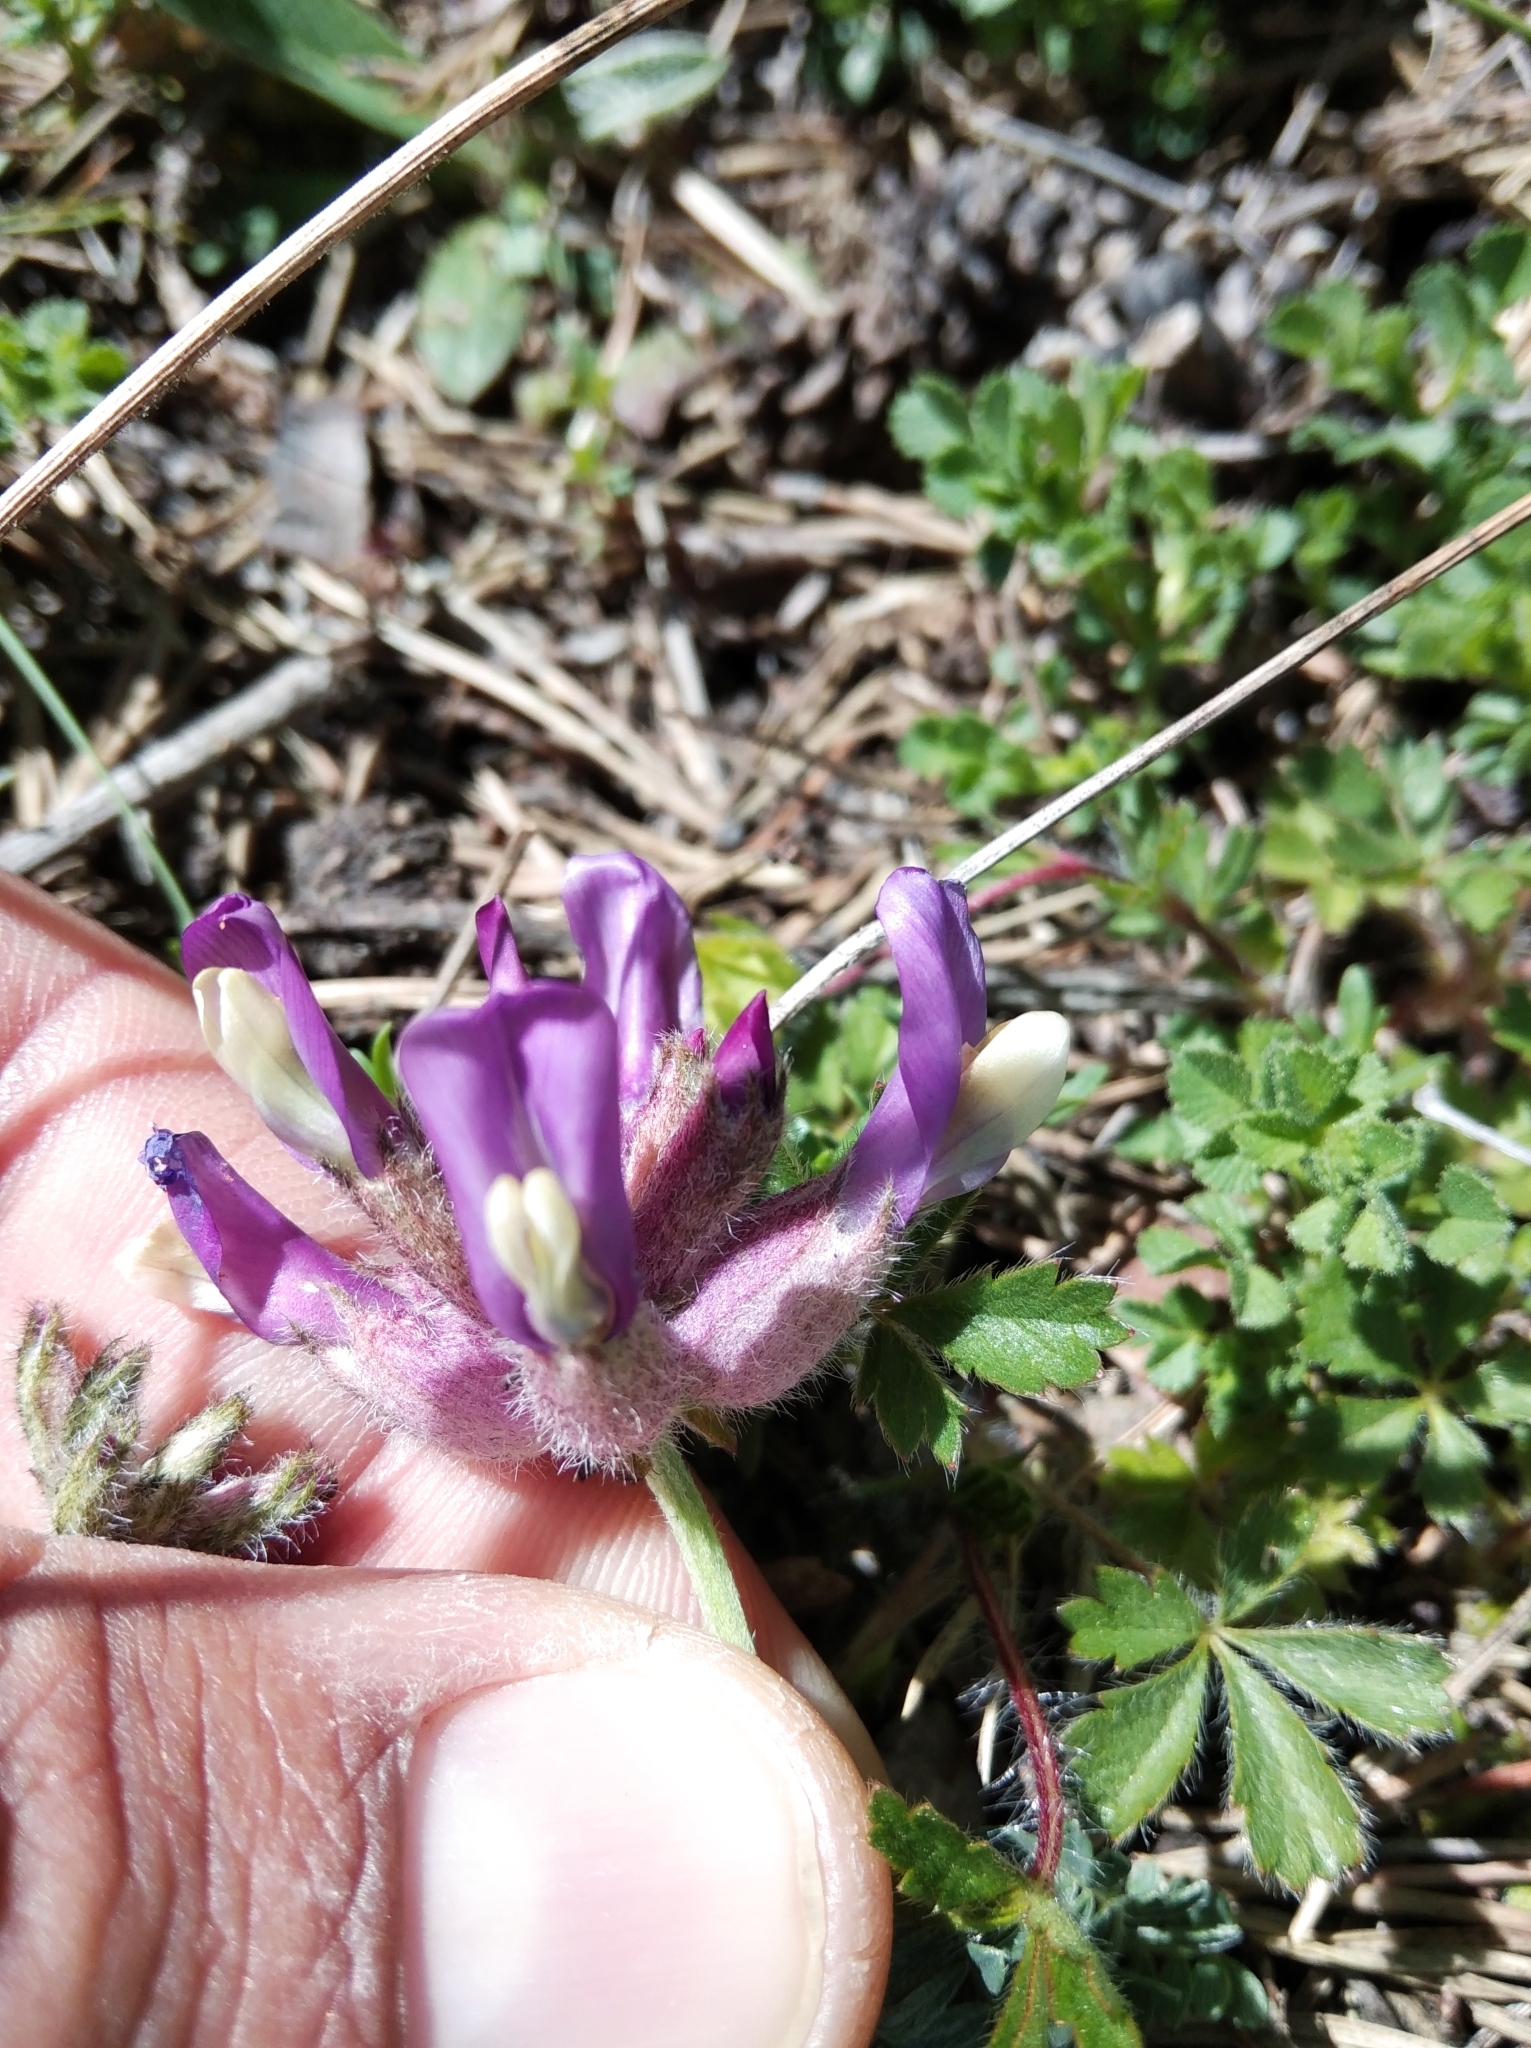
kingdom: Plantae
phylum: Tracheophyta
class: Magnoliopsida
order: Fabales
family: Fabaceae
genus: Astragalus
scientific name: Astragalus vesicarius
